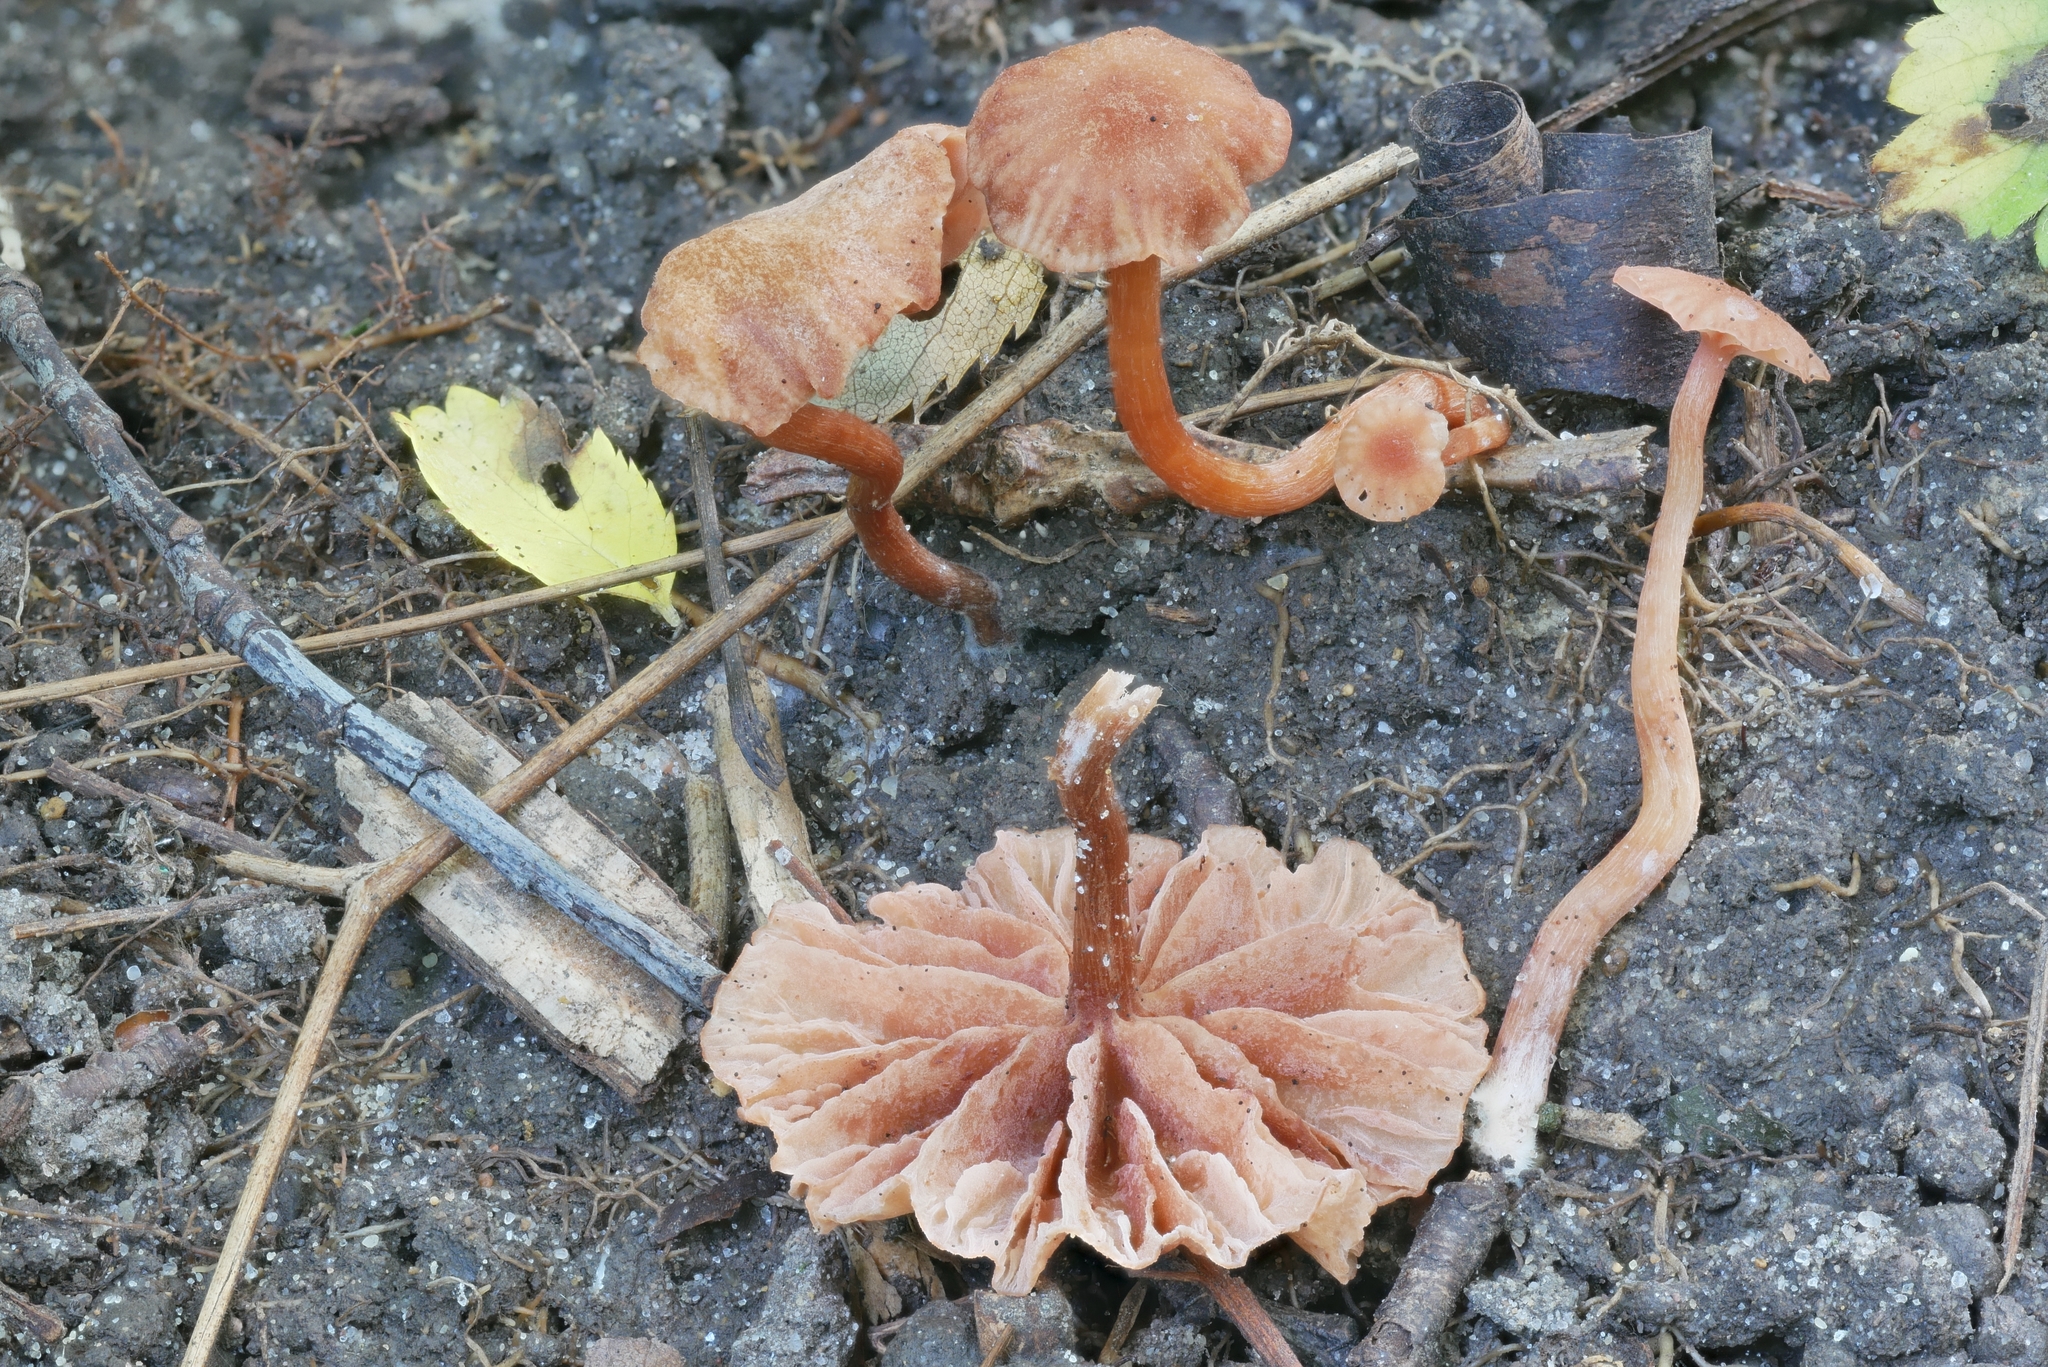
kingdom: Fungi
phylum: Basidiomycota
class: Agaricomycetes
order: Agaricales
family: Hydnangiaceae
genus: Laccaria
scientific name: Laccaria ohiensis
